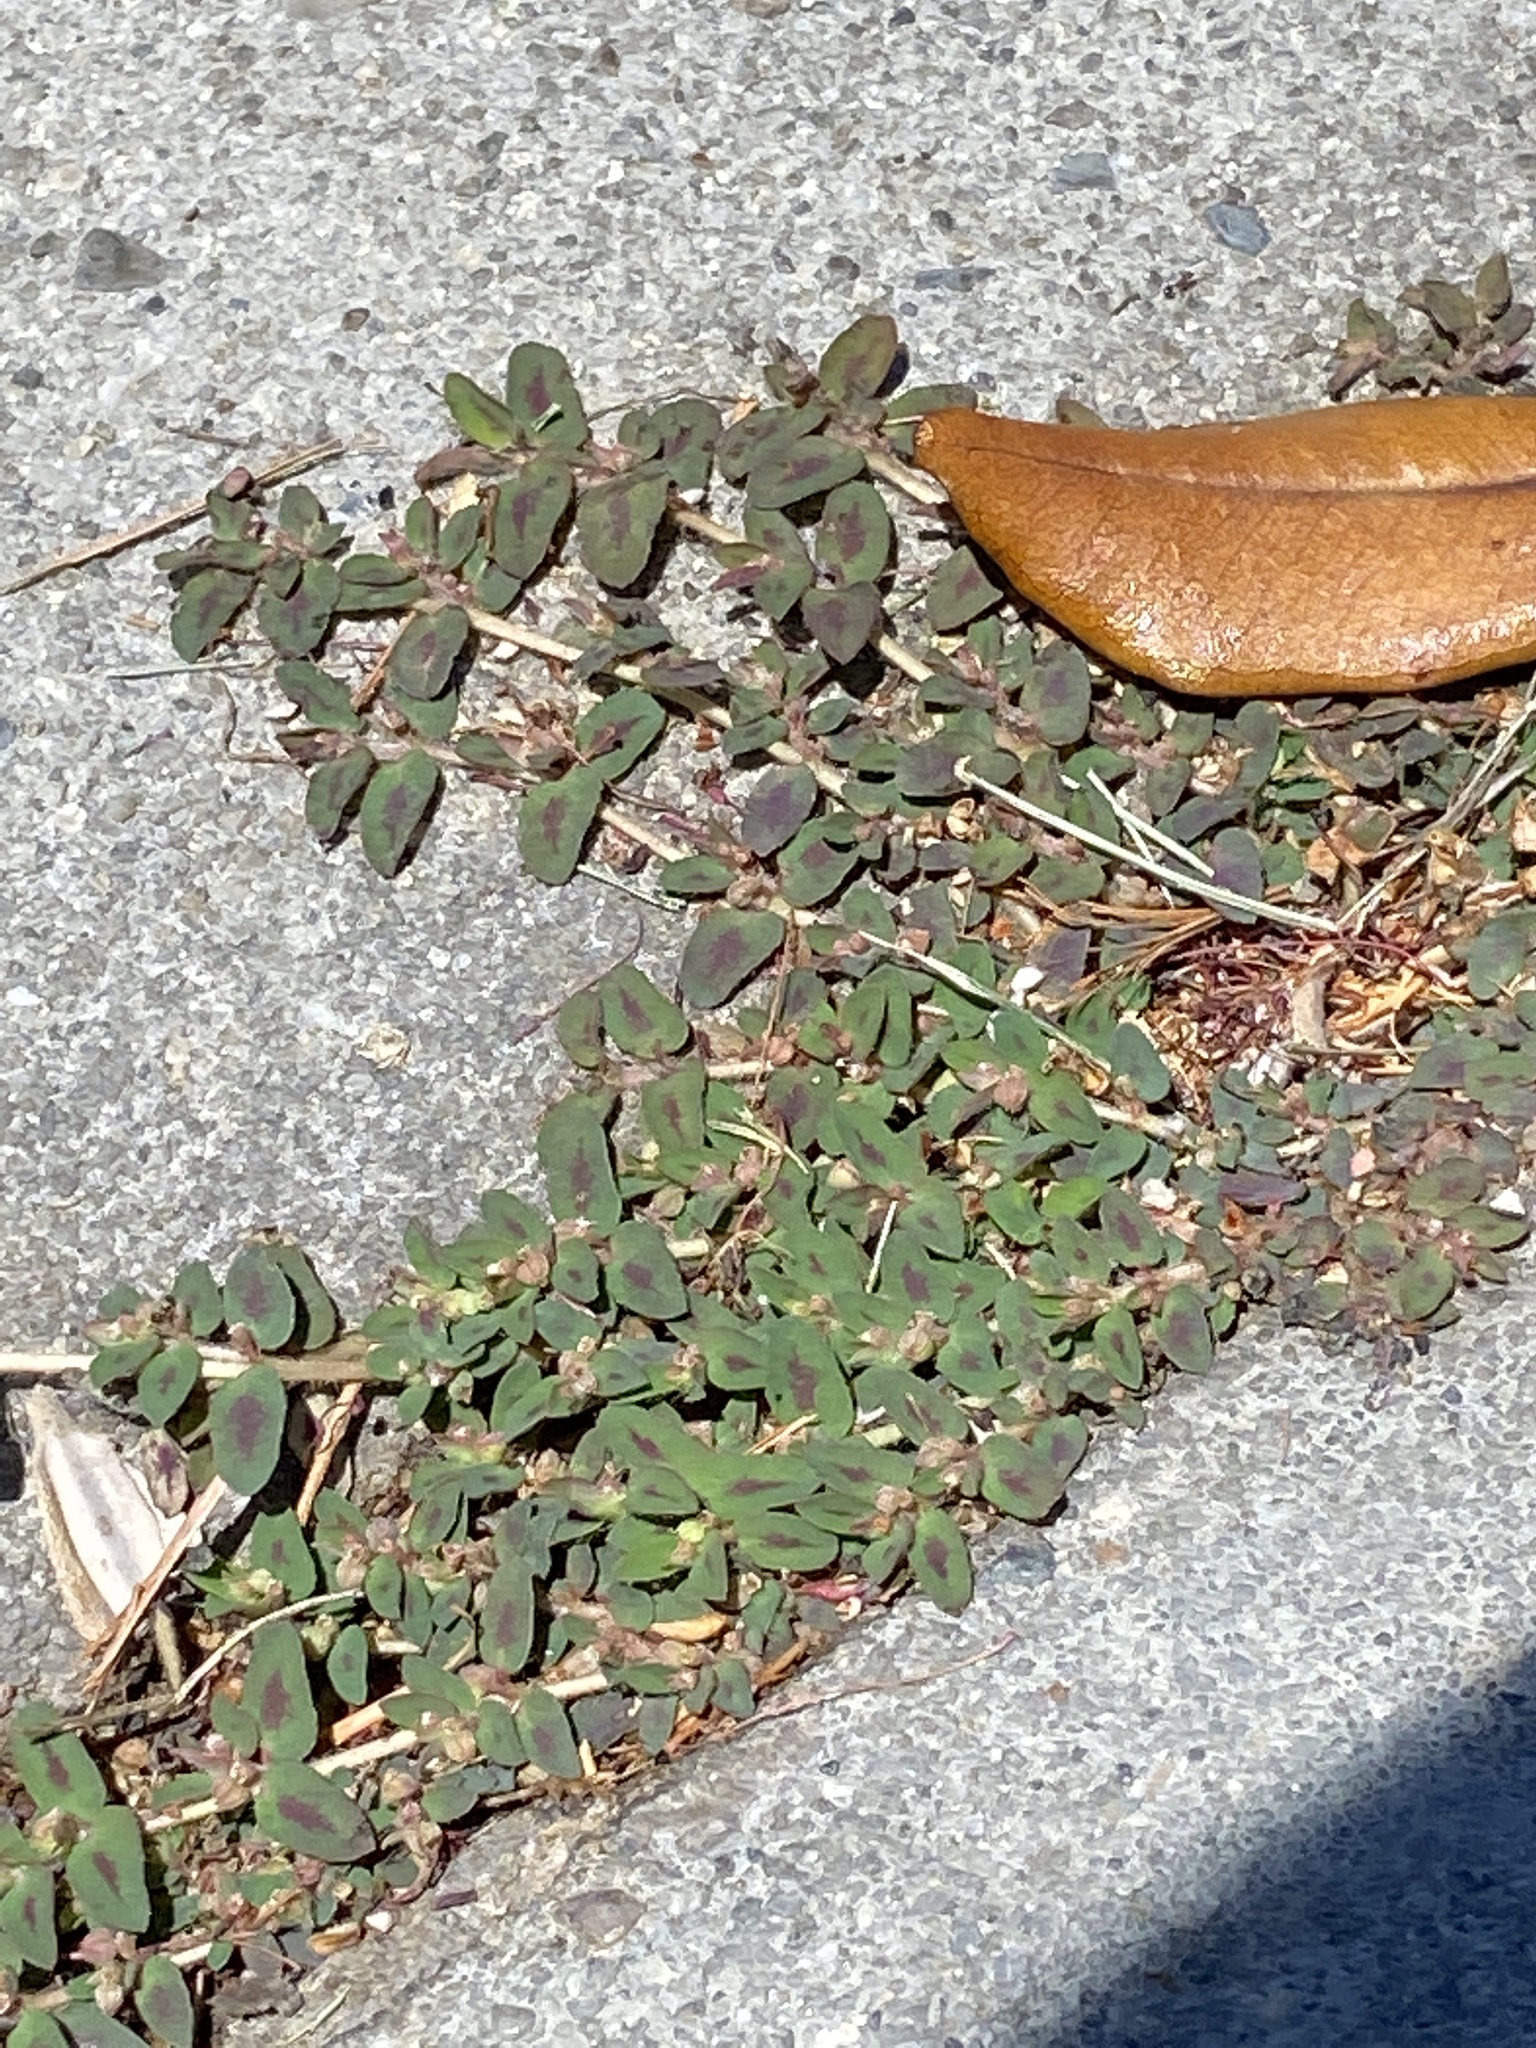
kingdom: Plantae
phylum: Tracheophyta
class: Magnoliopsida
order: Malpighiales
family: Euphorbiaceae
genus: Euphorbia
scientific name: Euphorbia maculata
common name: Spotted spurge
